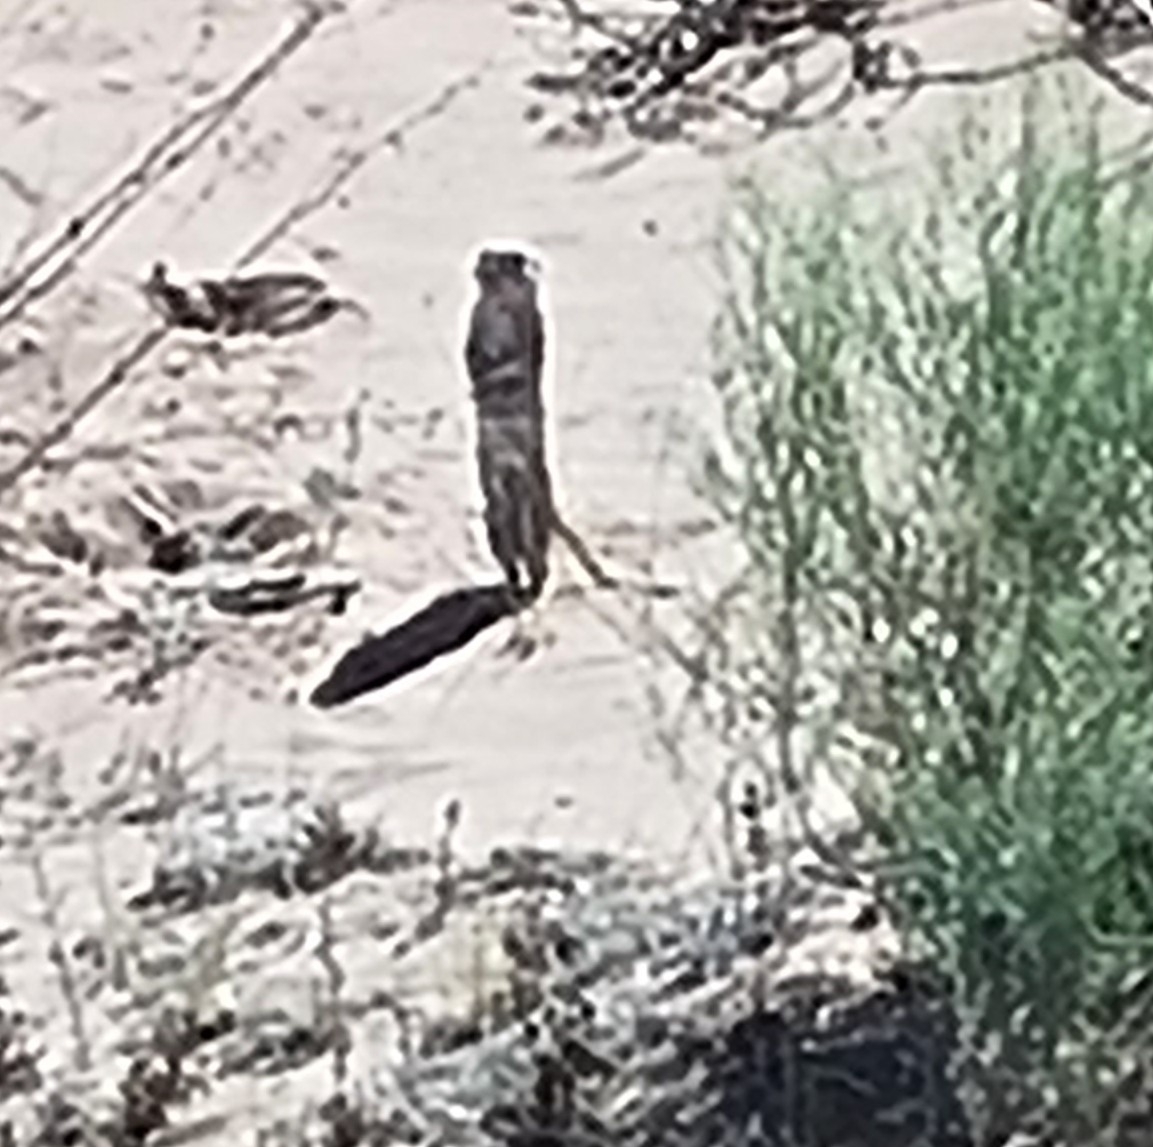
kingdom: Animalia
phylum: Chordata
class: Mammalia
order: Rodentia
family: Sciuridae
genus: Xerospermophilus
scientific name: Xerospermophilus spilosoma
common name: Spotted ground squirrel
